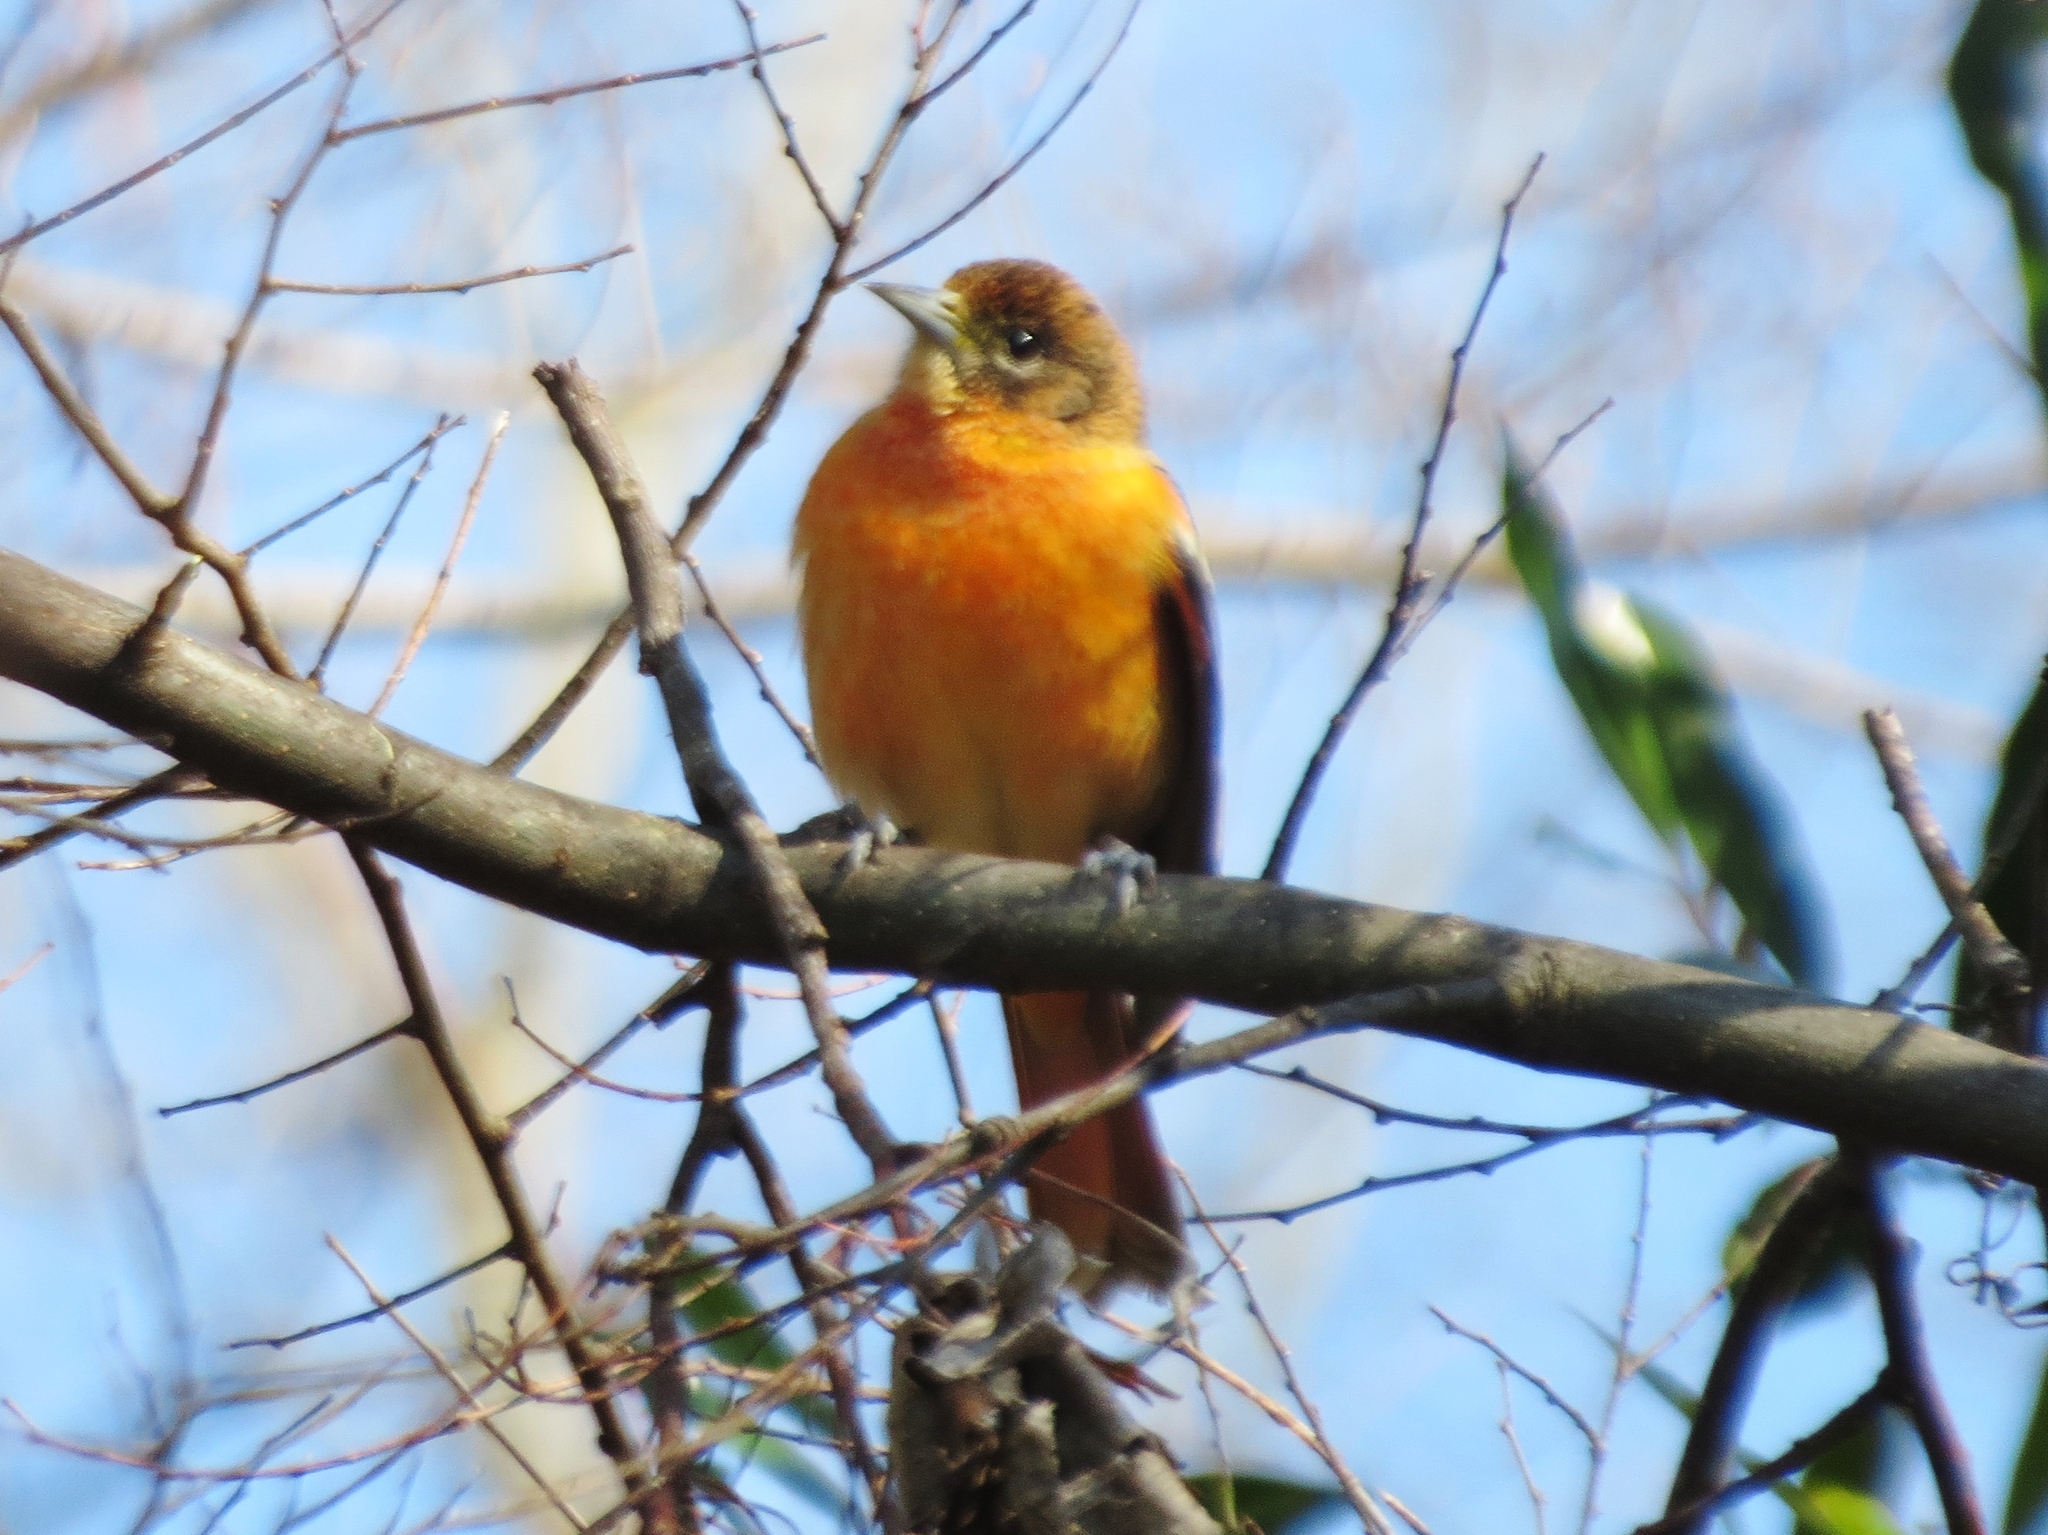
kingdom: Animalia
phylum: Chordata
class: Aves
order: Passeriformes
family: Icteridae
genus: Icterus
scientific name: Icterus galbula
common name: Baltimore oriole
